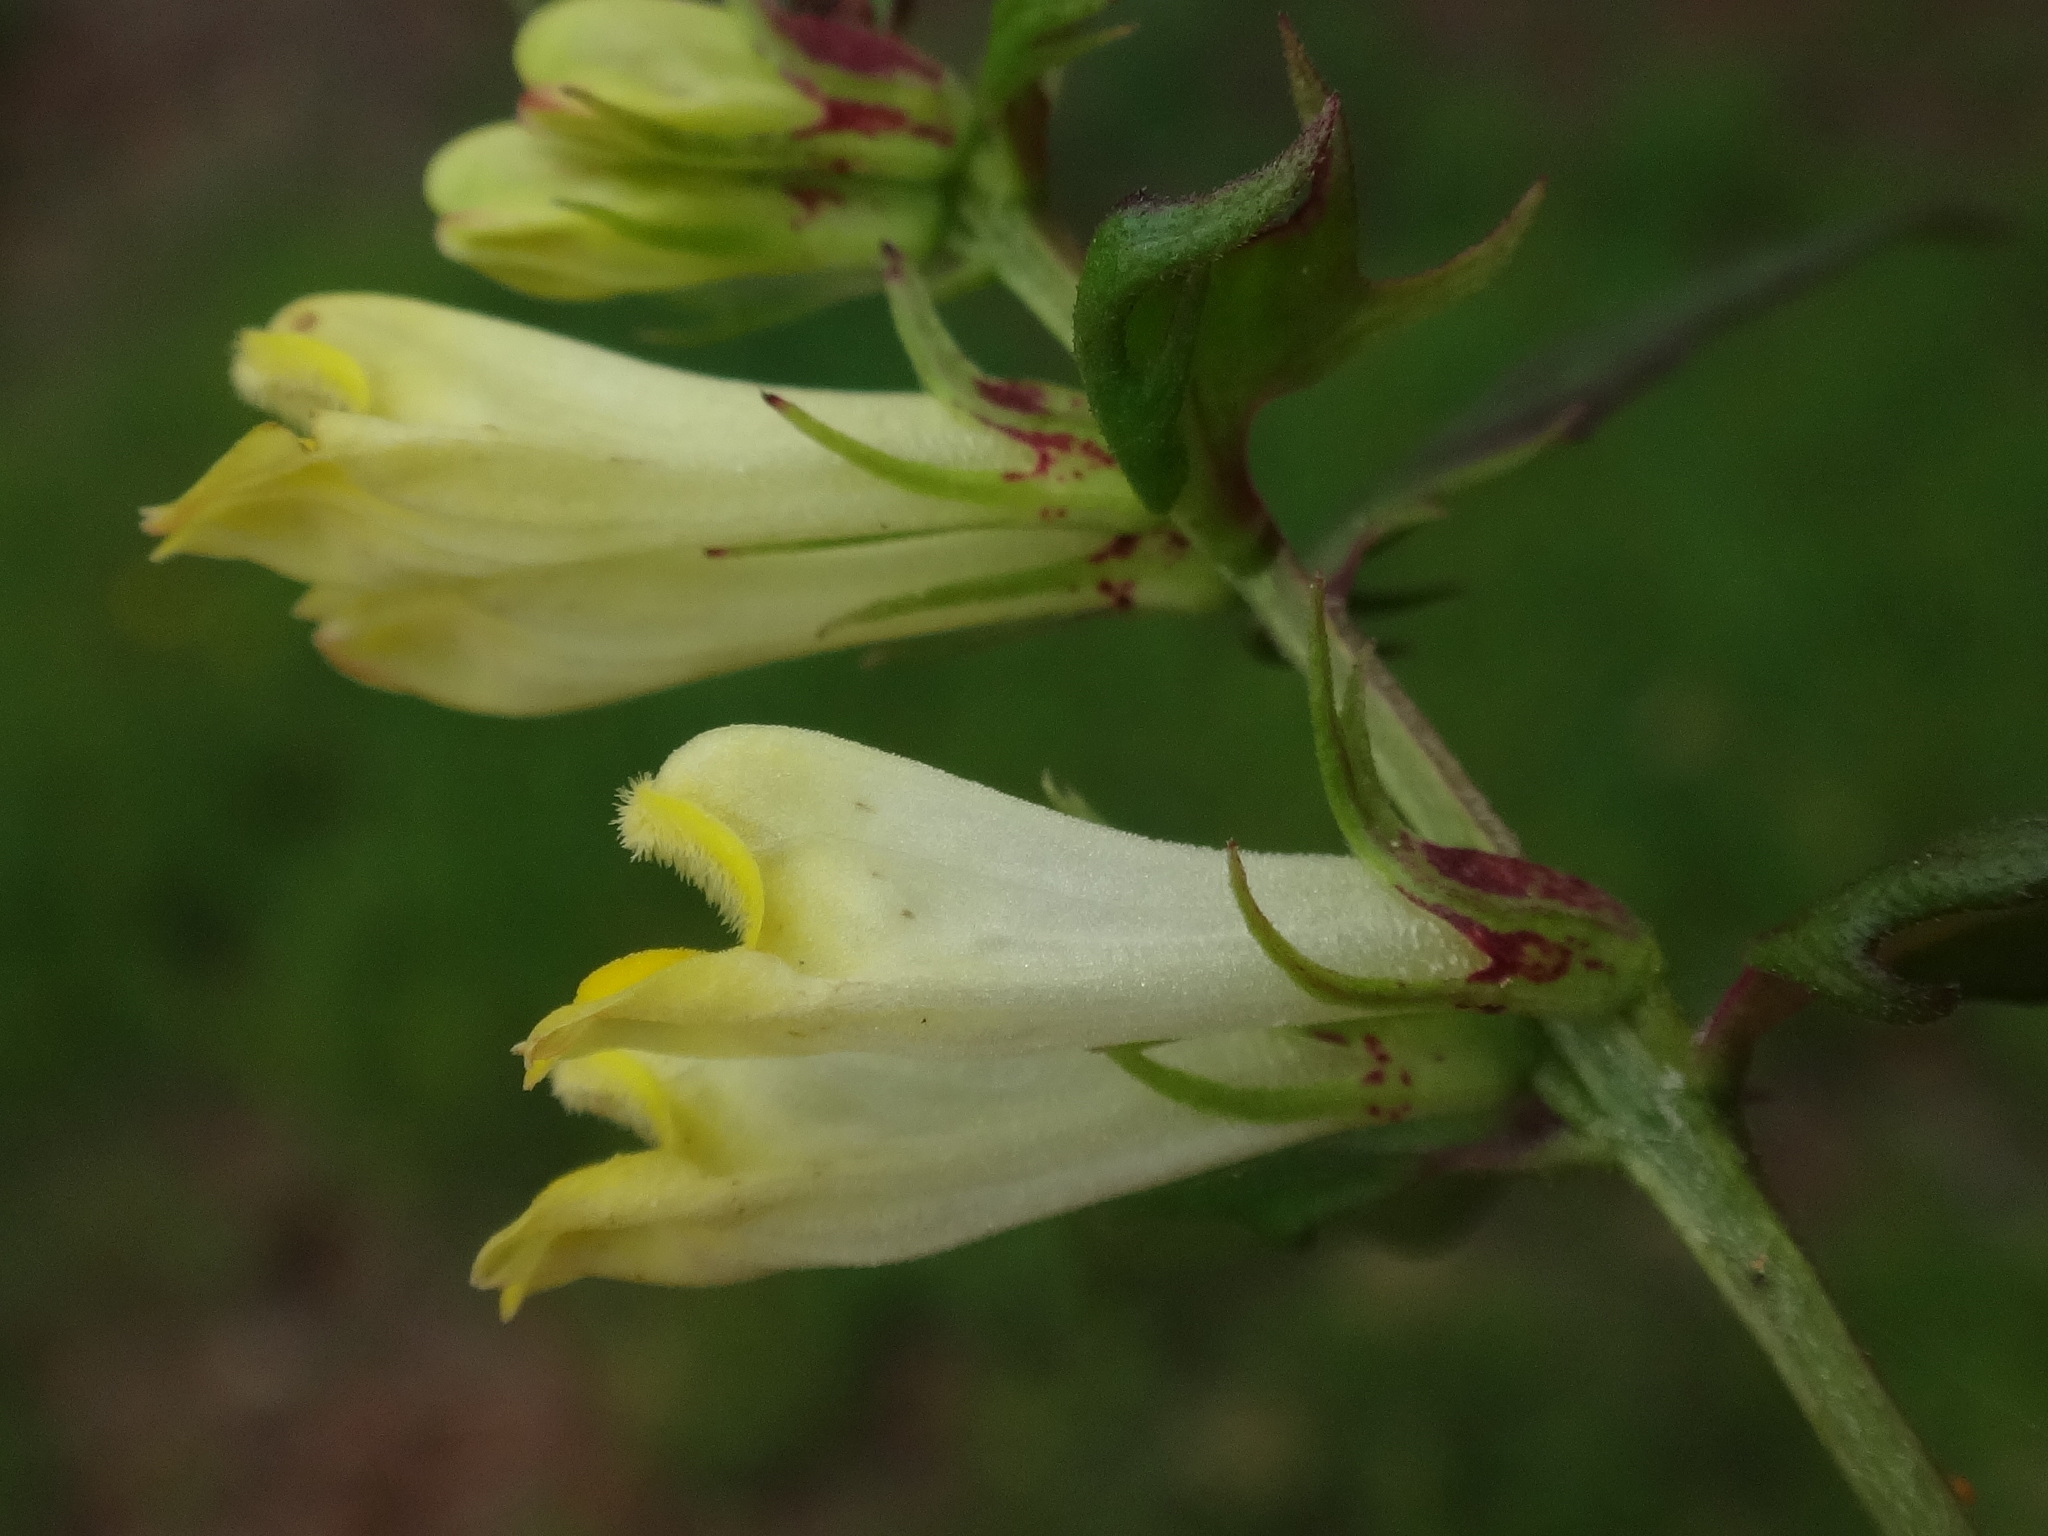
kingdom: Plantae
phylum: Tracheophyta
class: Magnoliopsida
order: Lamiales
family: Orobanchaceae
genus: Melampyrum
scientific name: Melampyrum pratense
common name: Common cow-wheat
